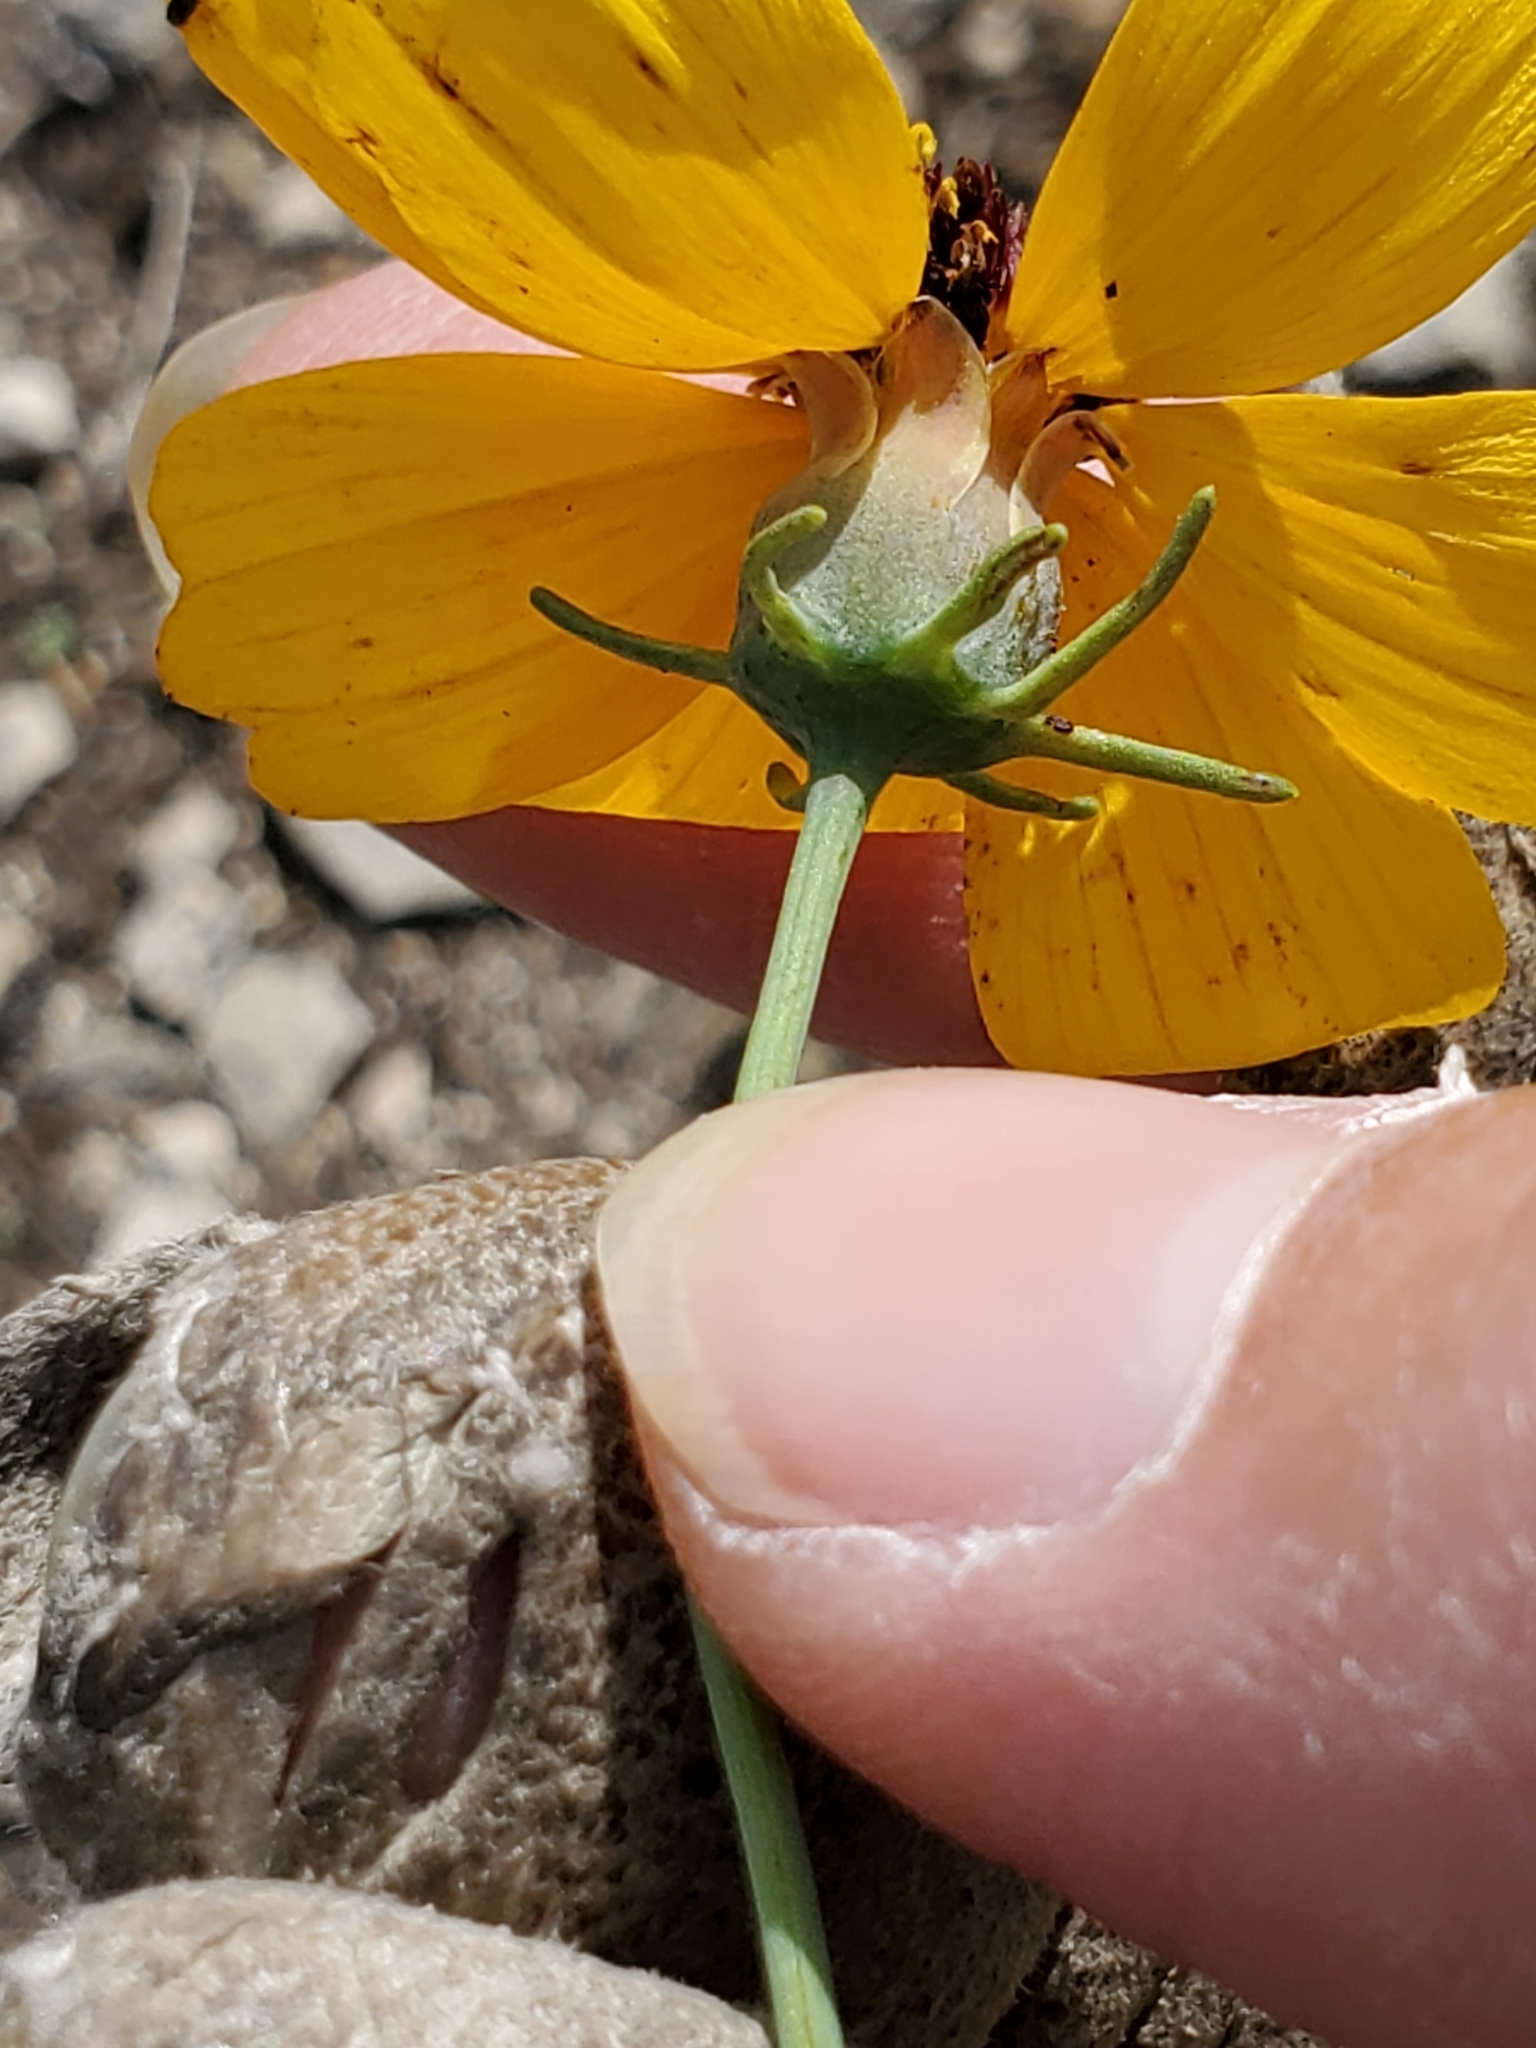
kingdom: Plantae
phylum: Tracheophyta
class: Magnoliopsida
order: Asterales
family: Asteraceae
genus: Thelesperma
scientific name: Thelesperma filifolium
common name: Stiff greenthread
